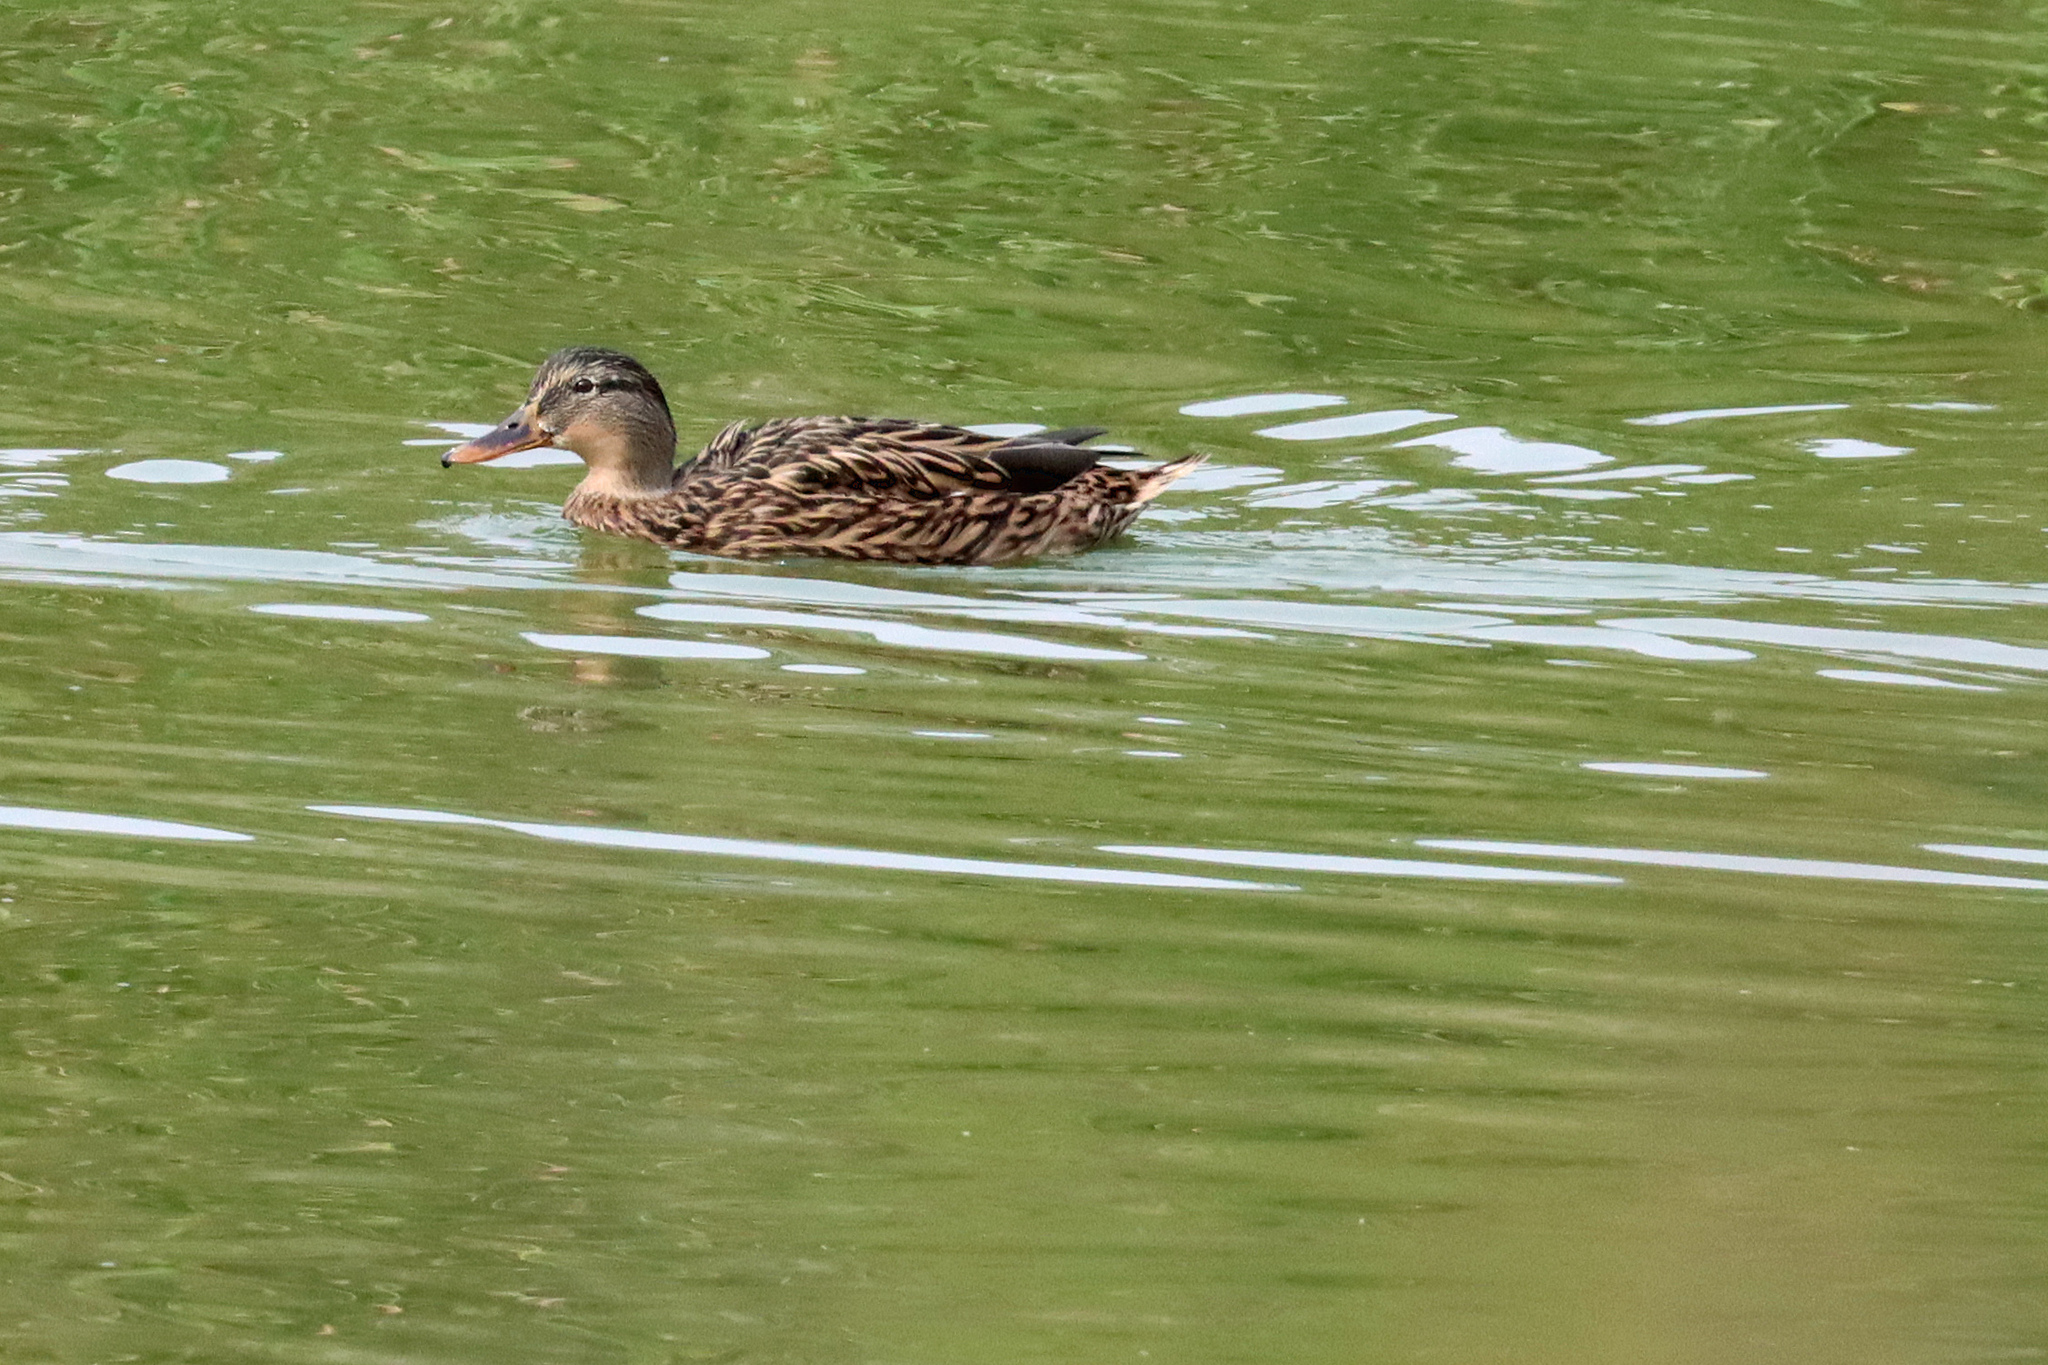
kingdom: Animalia
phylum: Chordata
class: Aves
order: Anseriformes
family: Anatidae
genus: Anas
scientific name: Anas platyrhynchos
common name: Mallard
